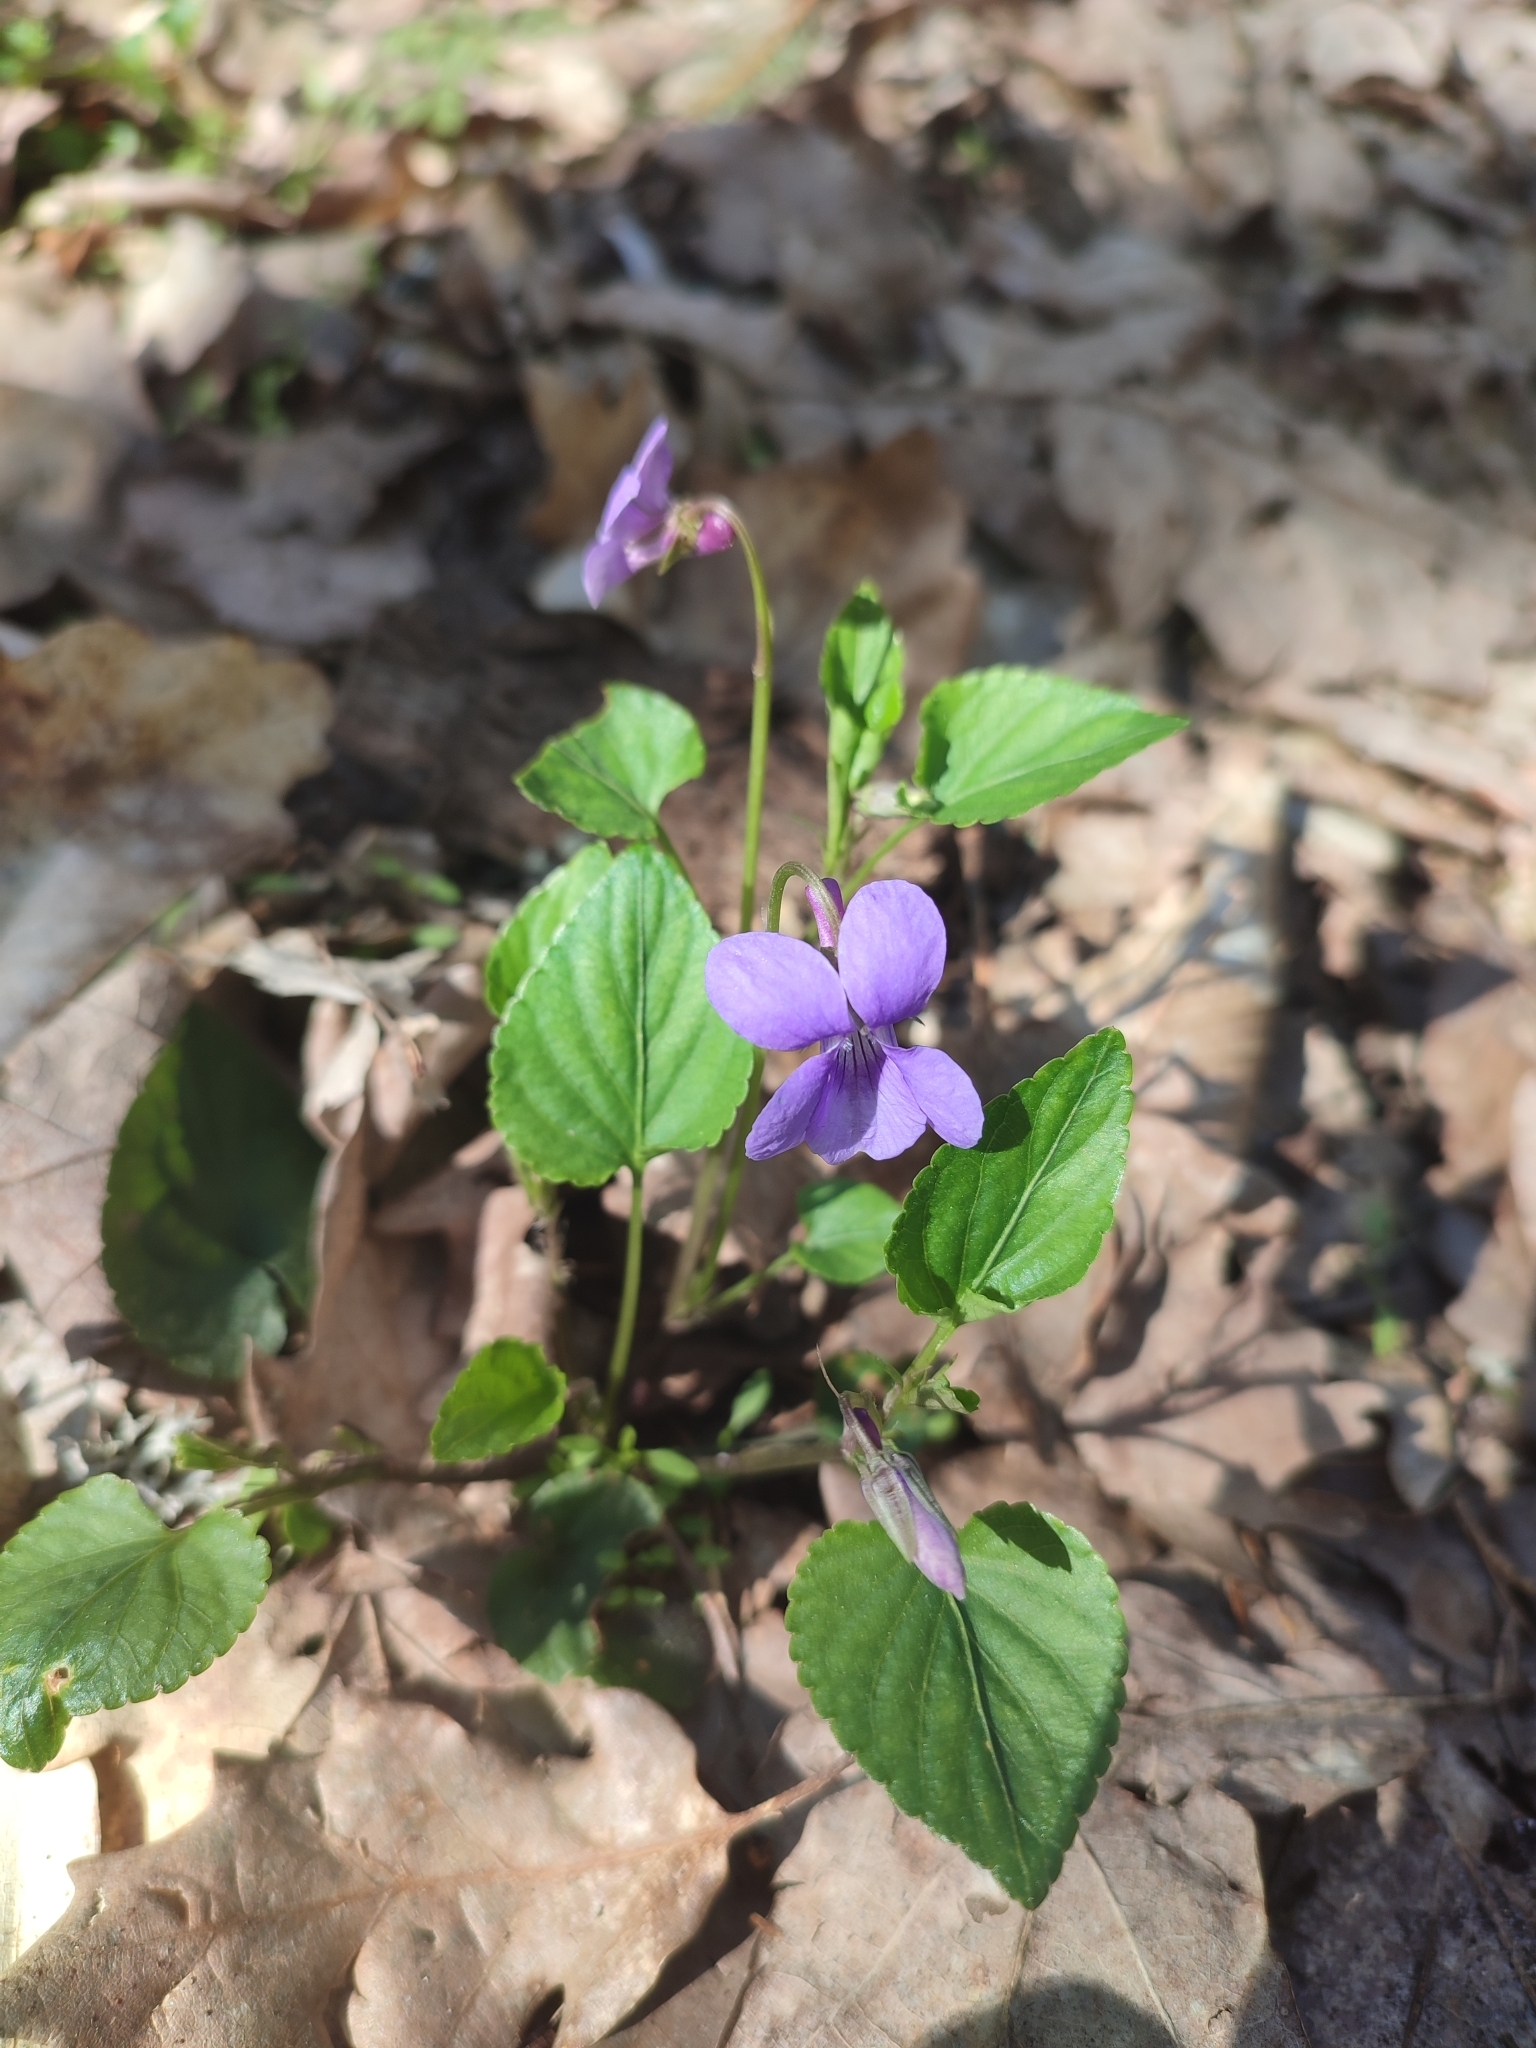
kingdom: Plantae
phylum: Tracheophyta
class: Magnoliopsida
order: Malpighiales
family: Violaceae
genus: Viola
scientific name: Viola reichenbachiana
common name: Early dog-violet
